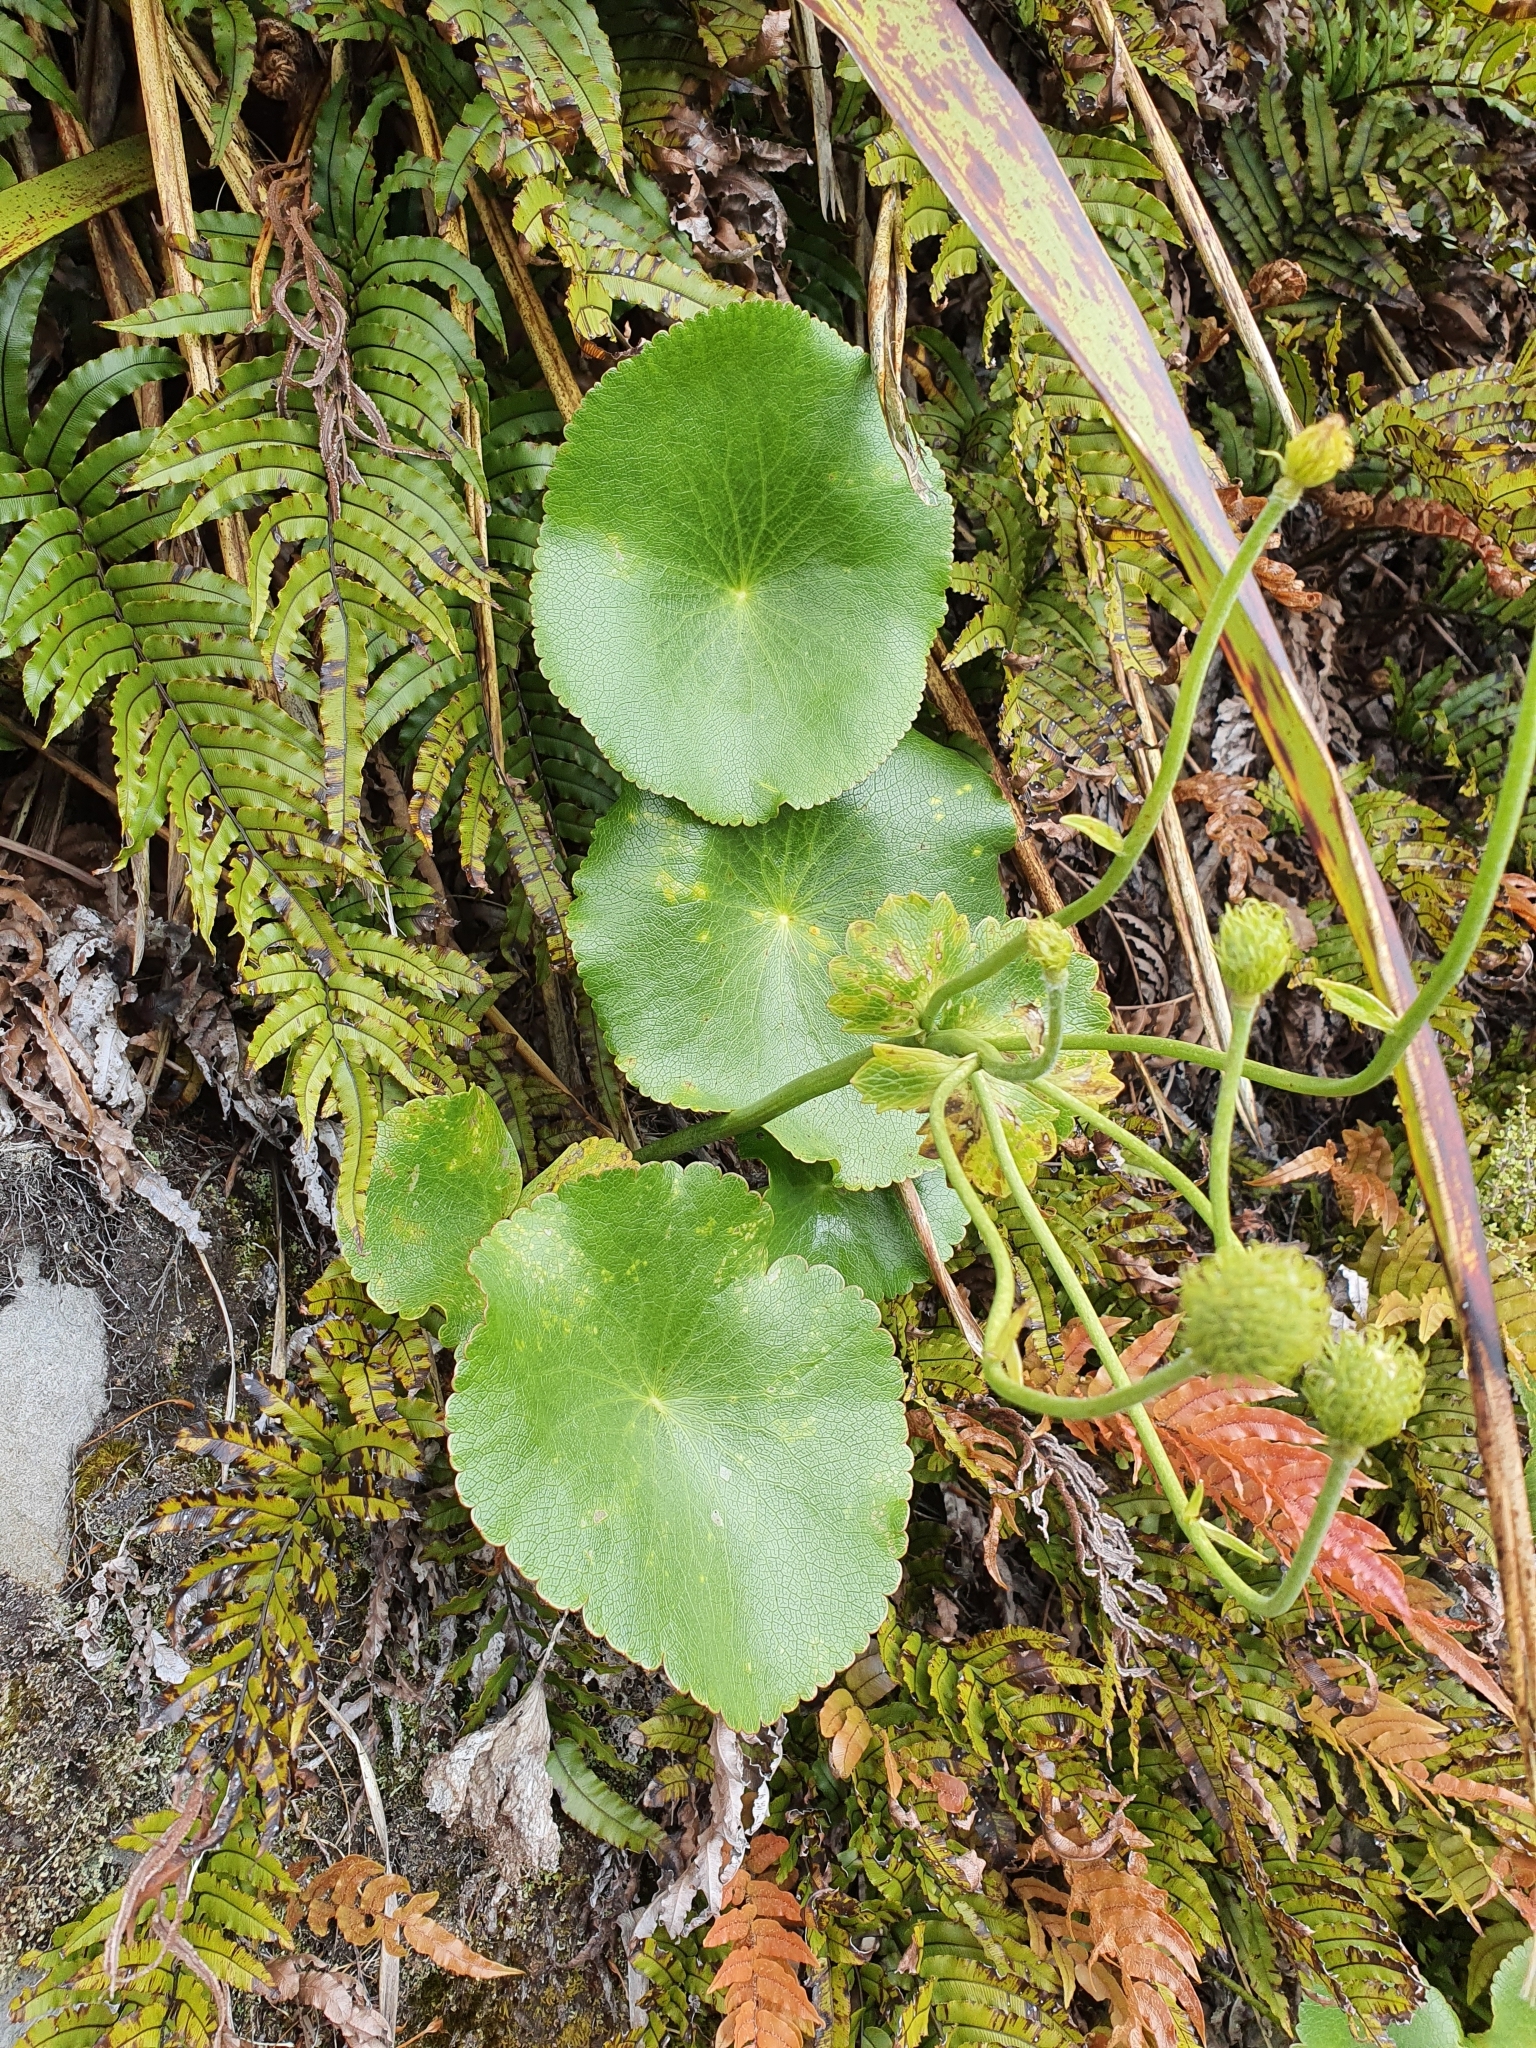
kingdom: Plantae
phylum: Tracheophyta
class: Magnoliopsida
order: Ranunculales
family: Ranunculaceae
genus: Ranunculus
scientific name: Ranunculus lyallii
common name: Mountain-lily
